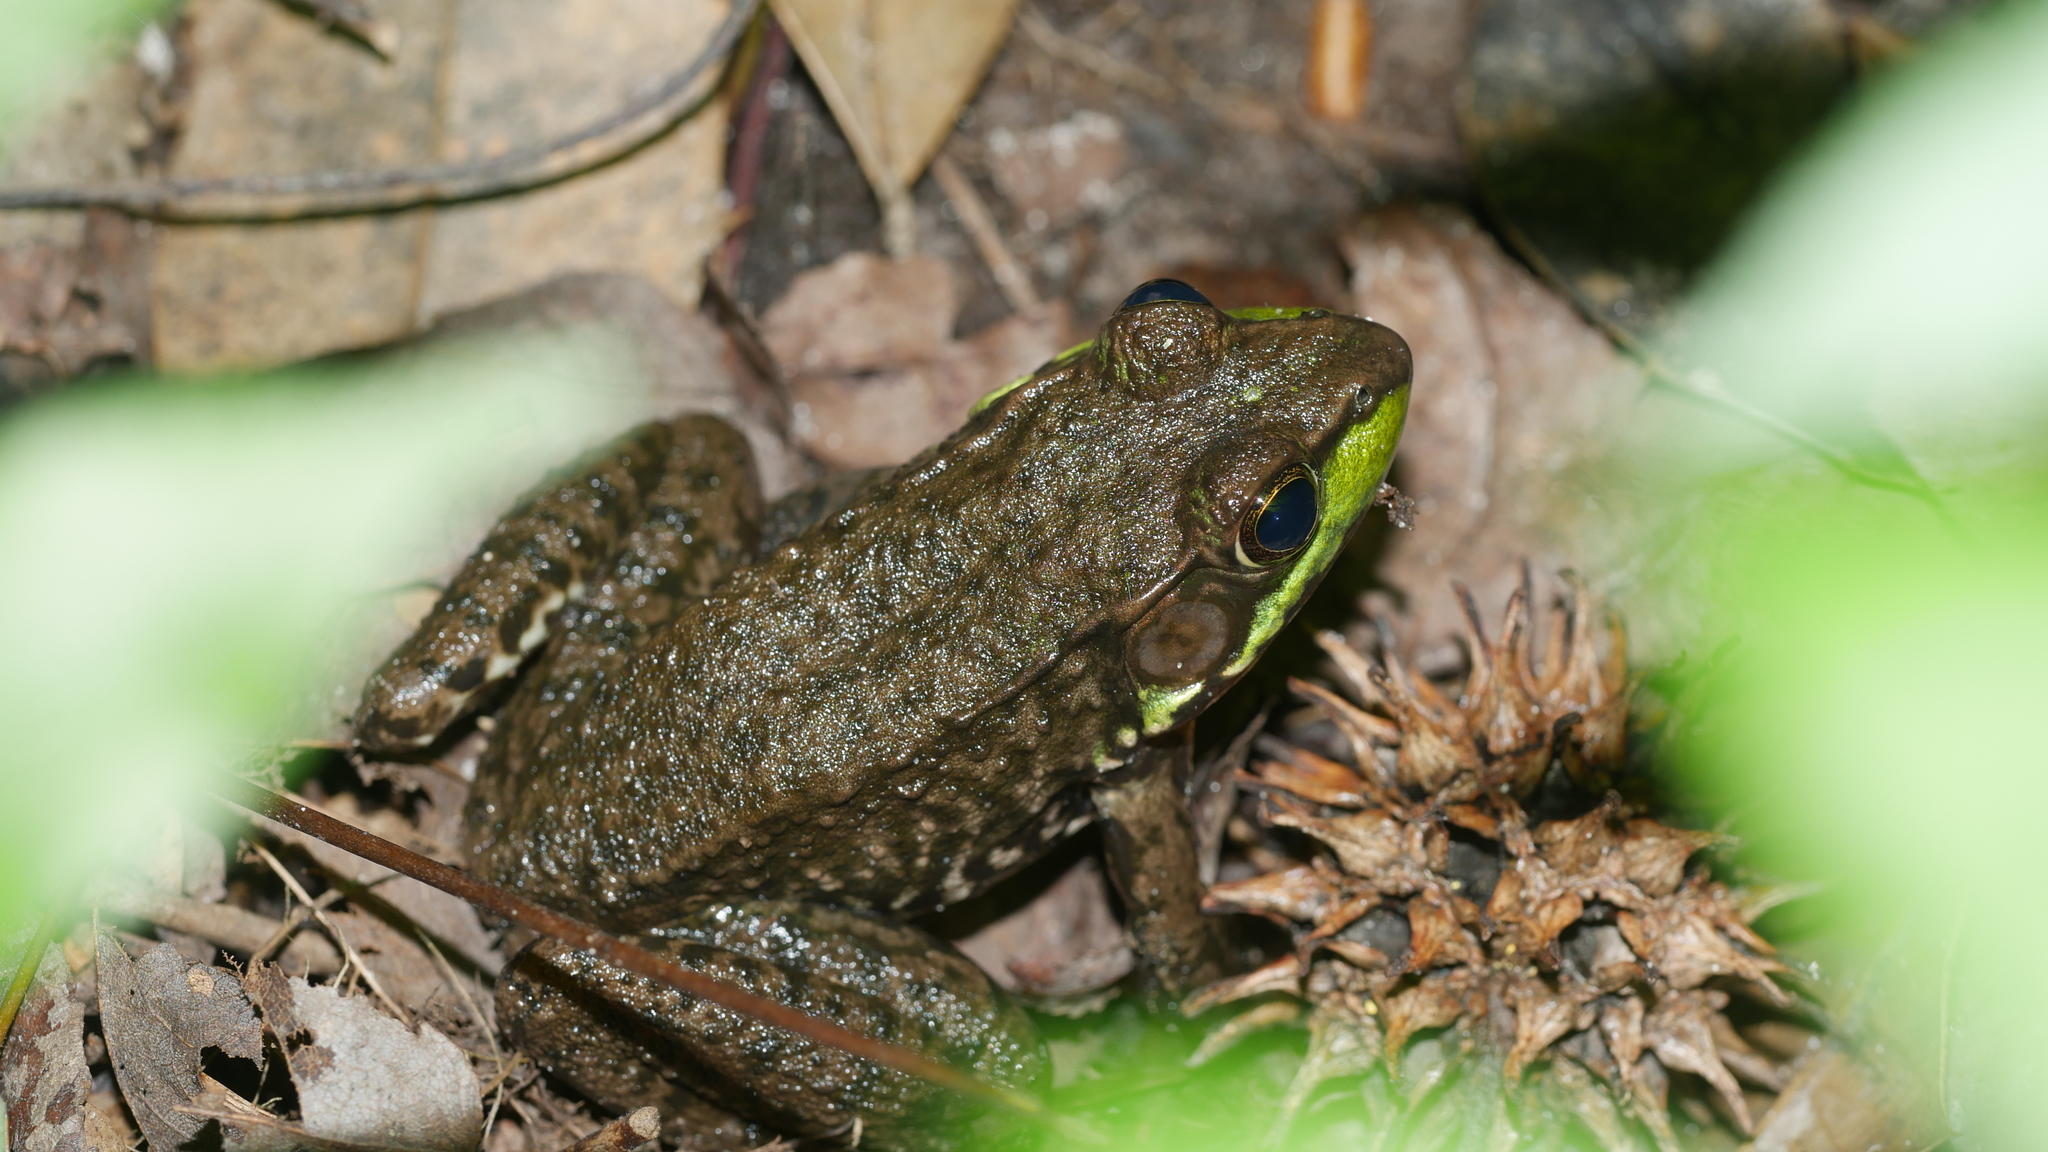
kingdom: Animalia
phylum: Chordata
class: Amphibia
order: Anura
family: Ranidae
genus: Lithobates
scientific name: Lithobates clamitans
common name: Green frog
